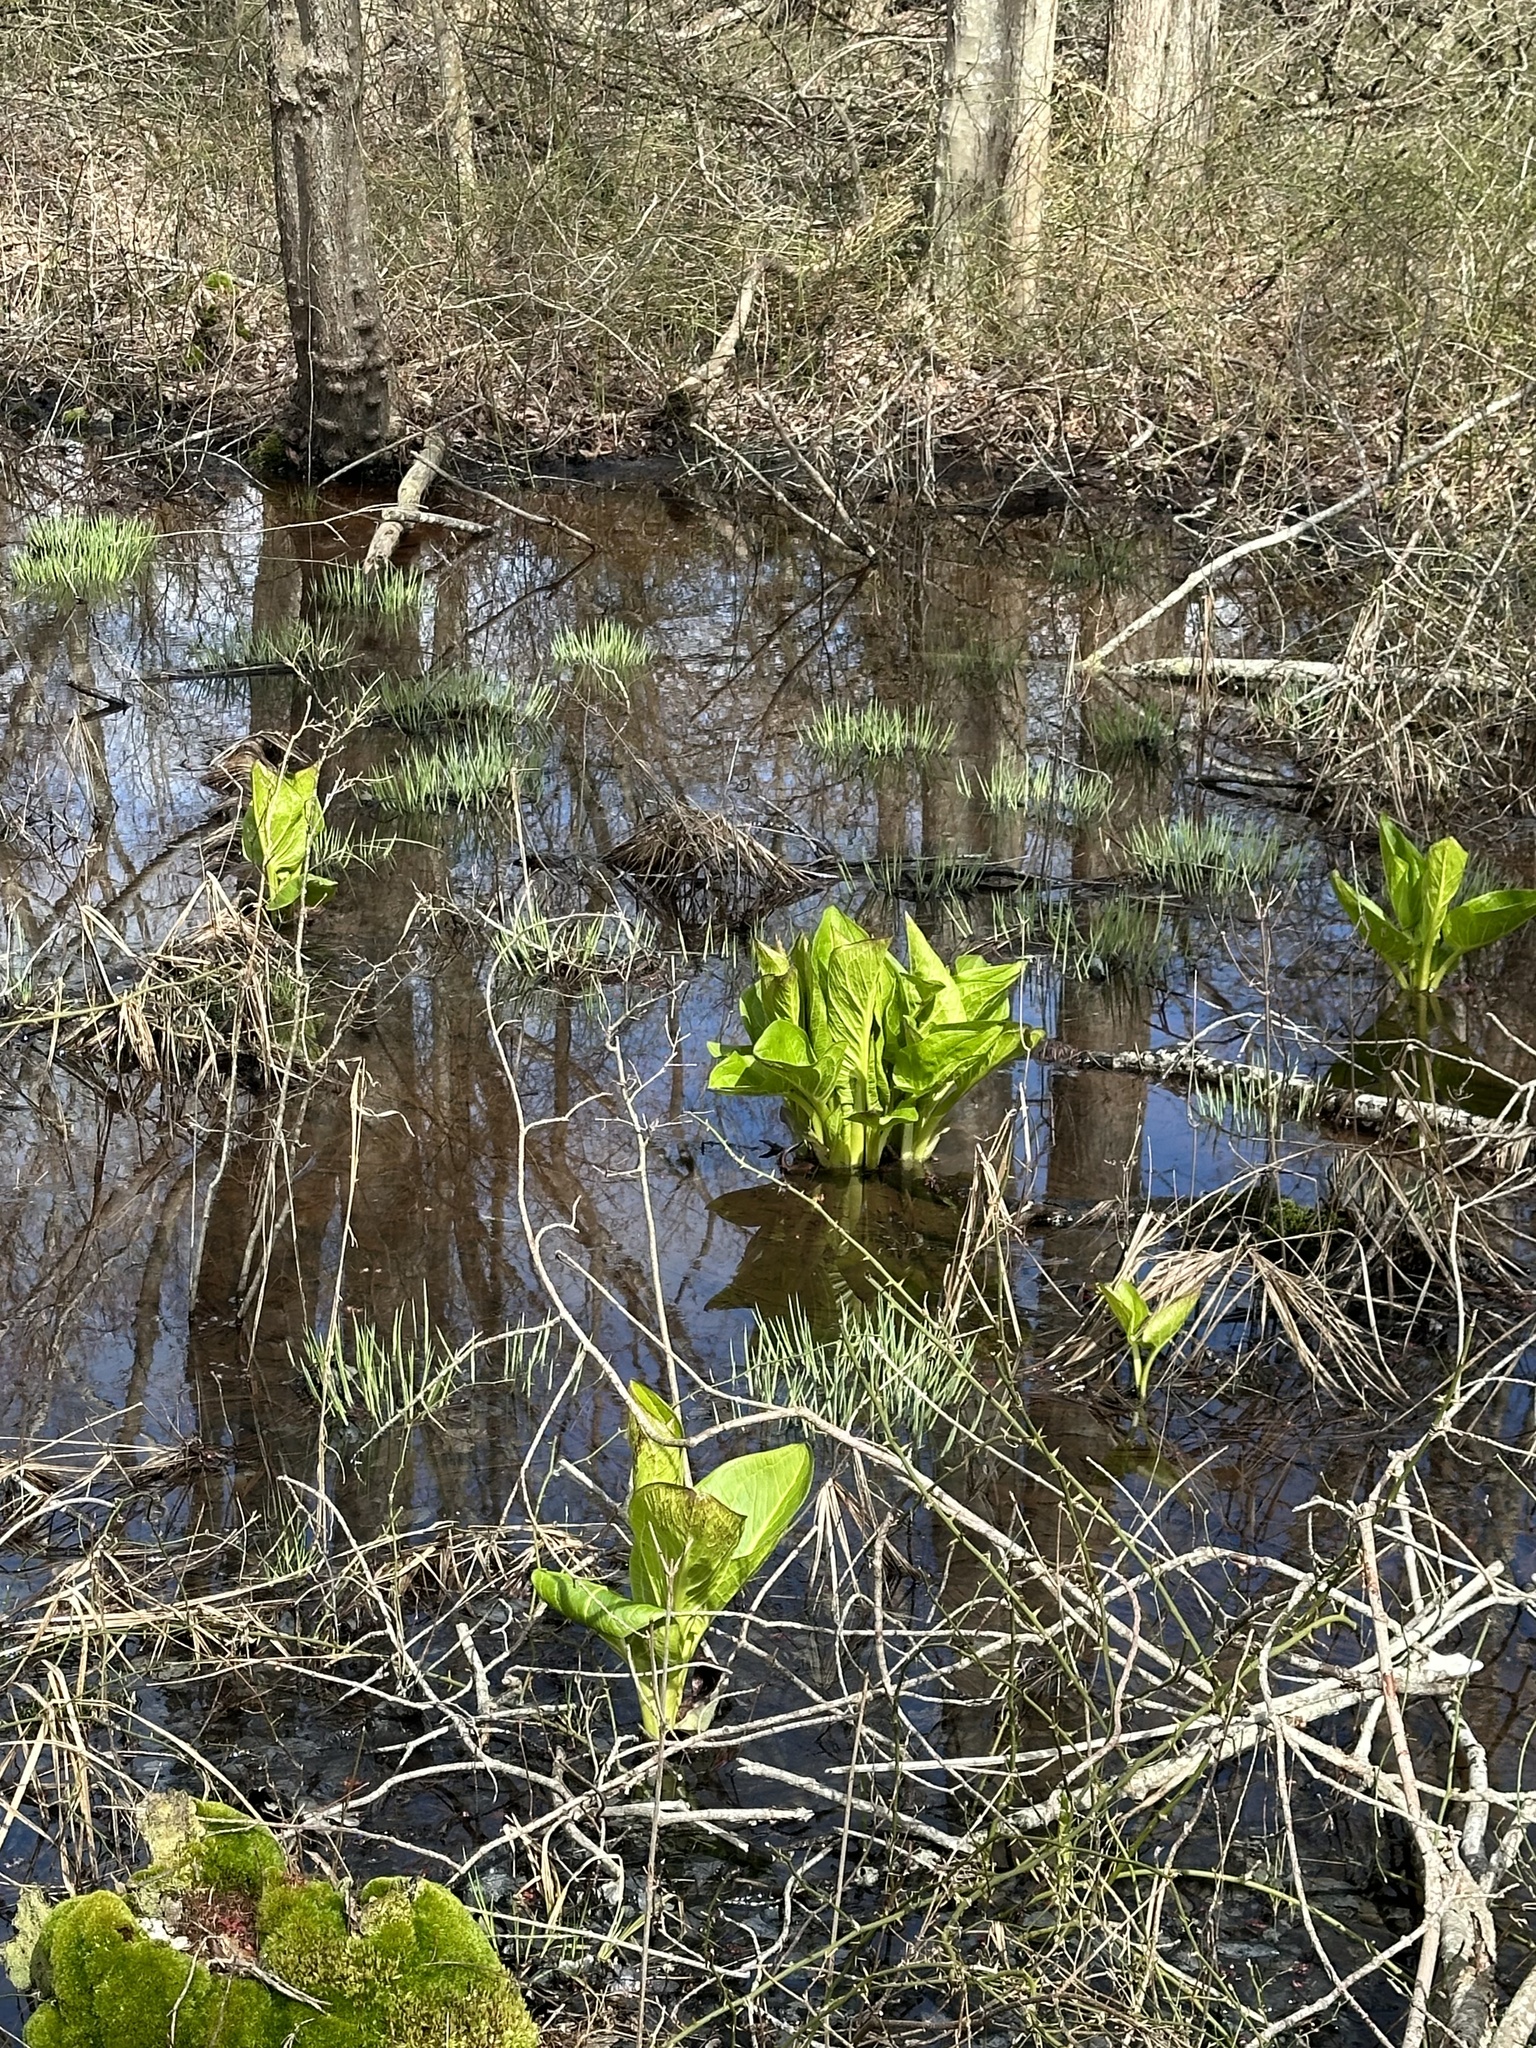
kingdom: Plantae
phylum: Tracheophyta
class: Liliopsida
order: Alismatales
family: Araceae
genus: Symplocarpus
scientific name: Symplocarpus foetidus
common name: Eastern skunk cabbage
